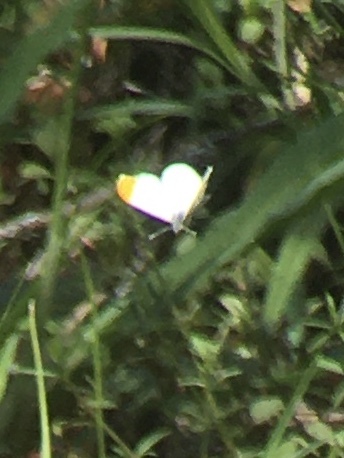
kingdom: Animalia
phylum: Arthropoda
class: Insecta
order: Lepidoptera
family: Pieridae
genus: Anthocharis
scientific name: Anthocharis midea
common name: Falcate orangetip
